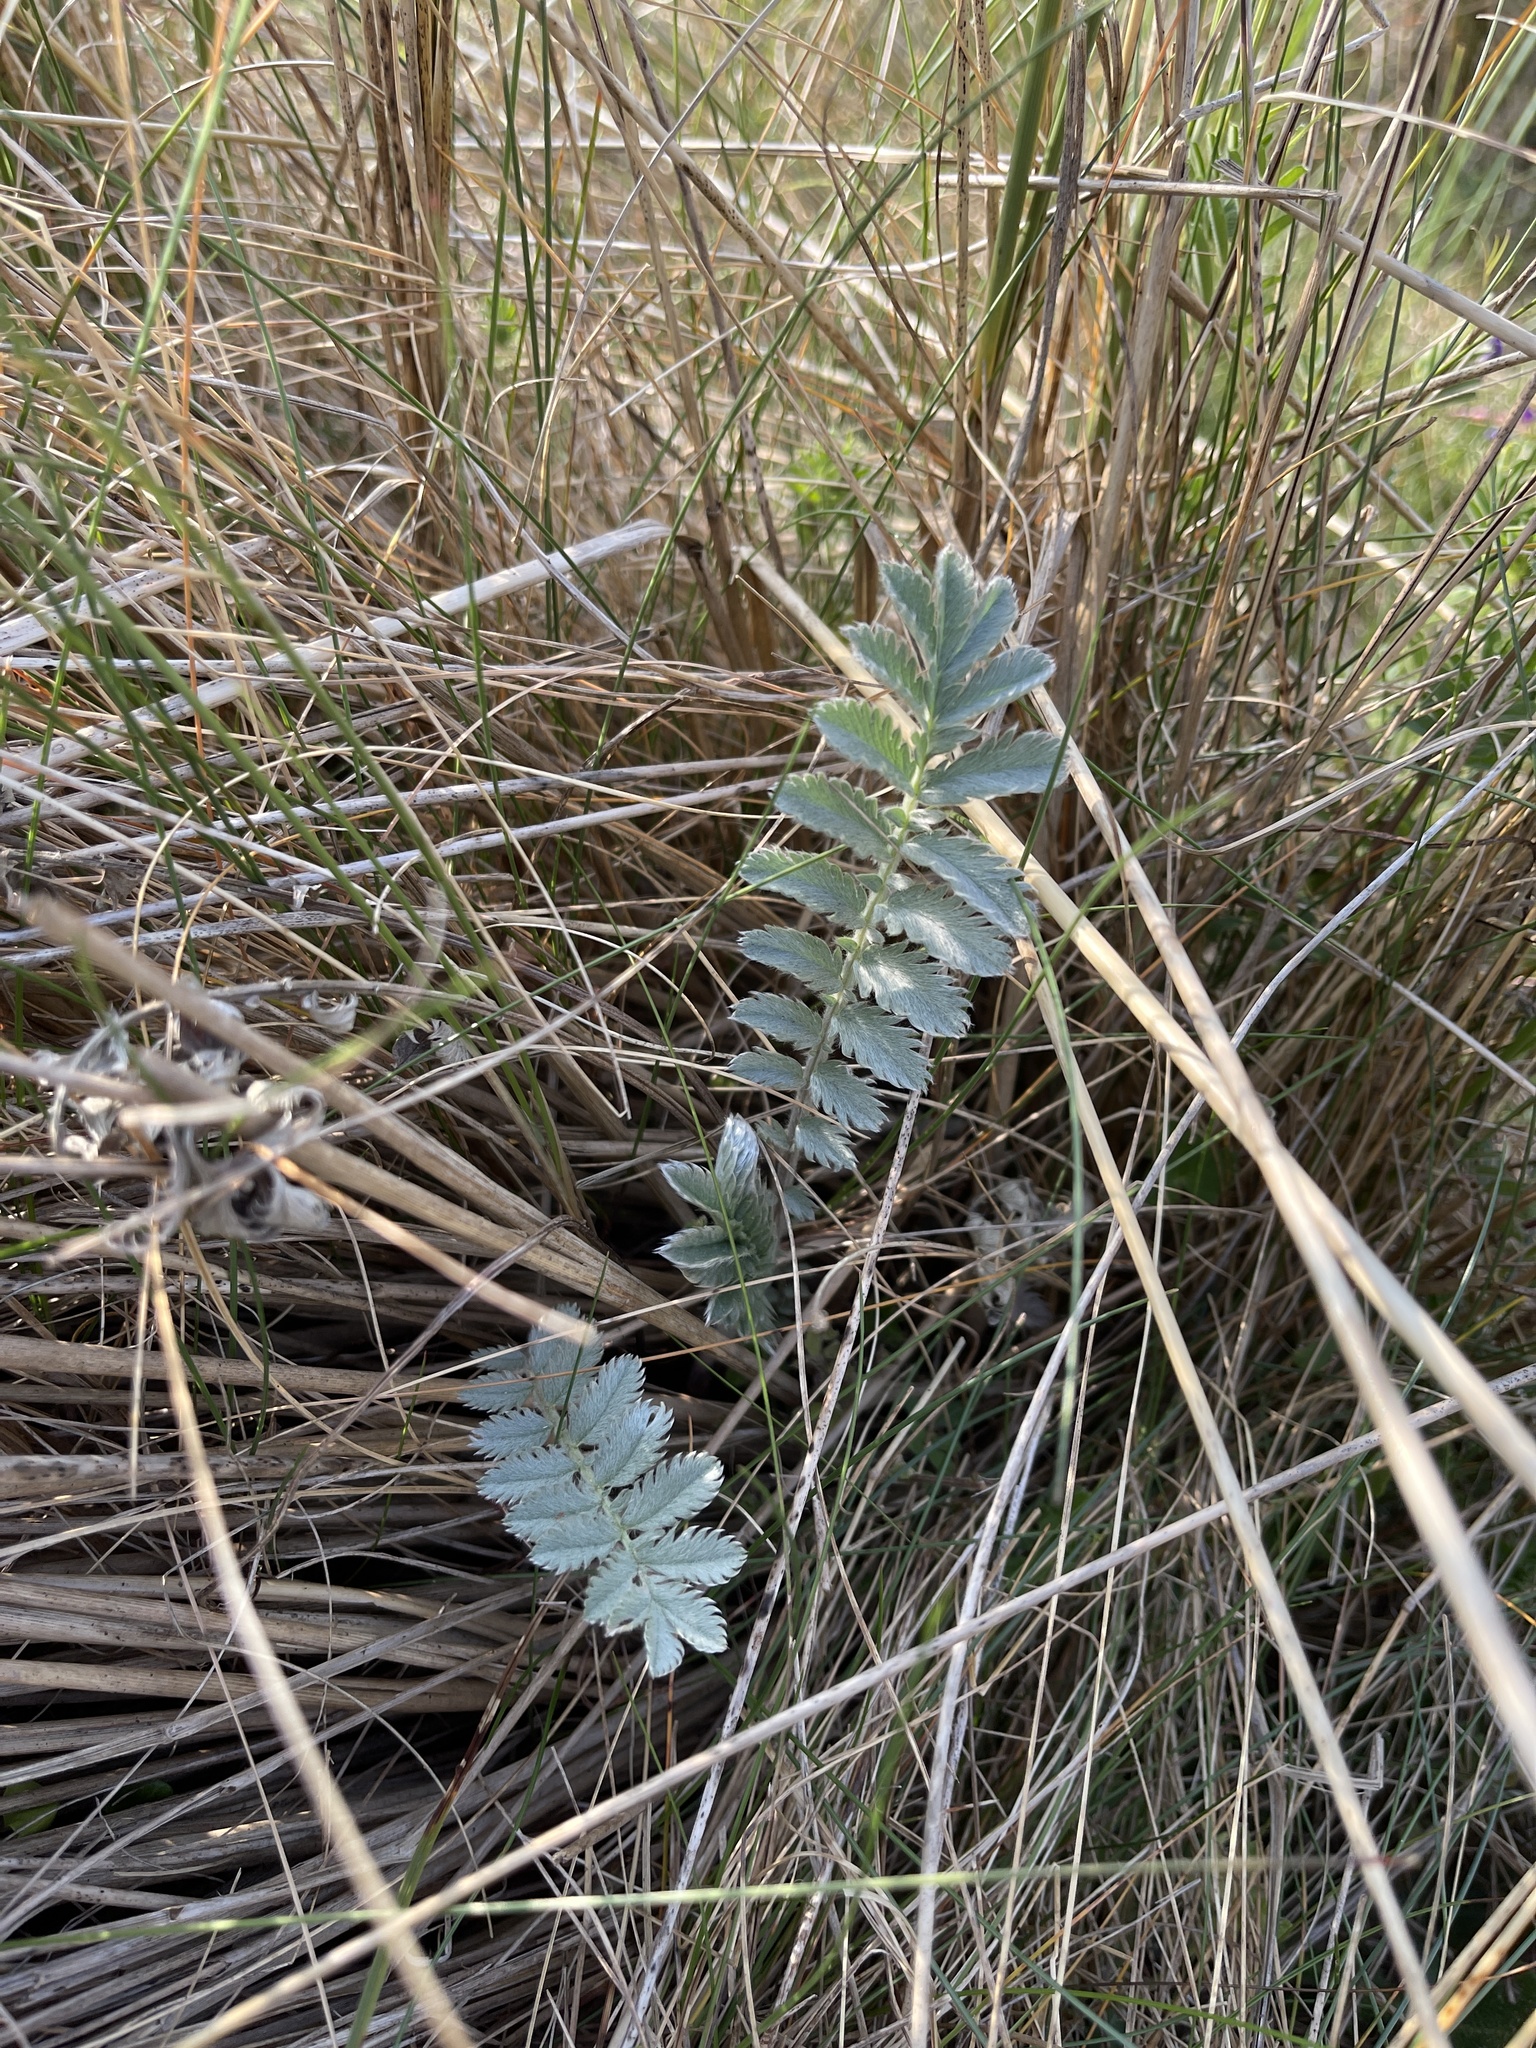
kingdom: Plantae
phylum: Tracheophyta
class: Magnoliopsida
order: Rosales
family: Rosaceae
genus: Argentina
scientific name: Argentina anserina
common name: Common silverweed
